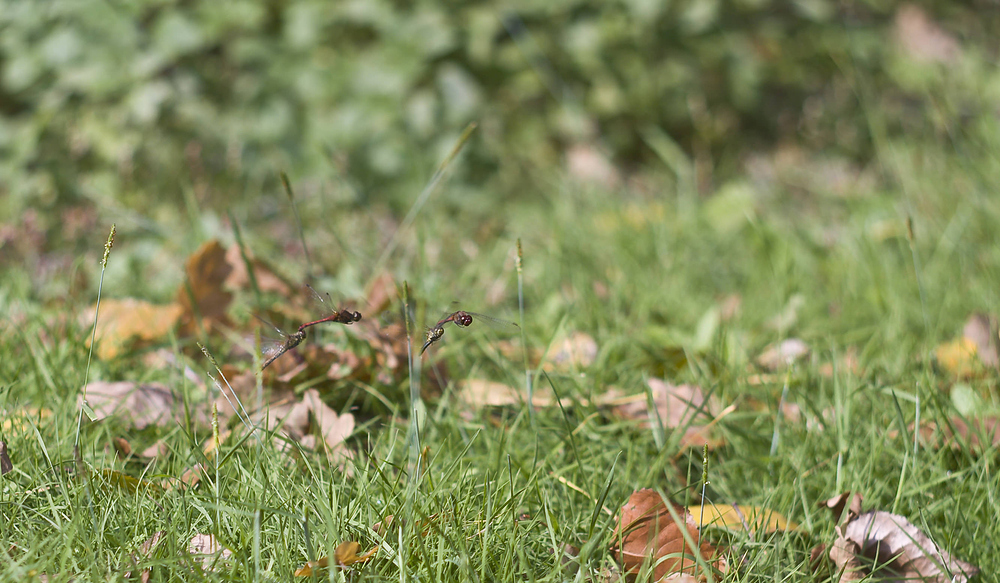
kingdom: Animalia
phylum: Arthropoda
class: Insecta
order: Odonata
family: Libellulidae
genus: Sympetrum
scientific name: Sympetrum sanguineum
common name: Ruddy darter
